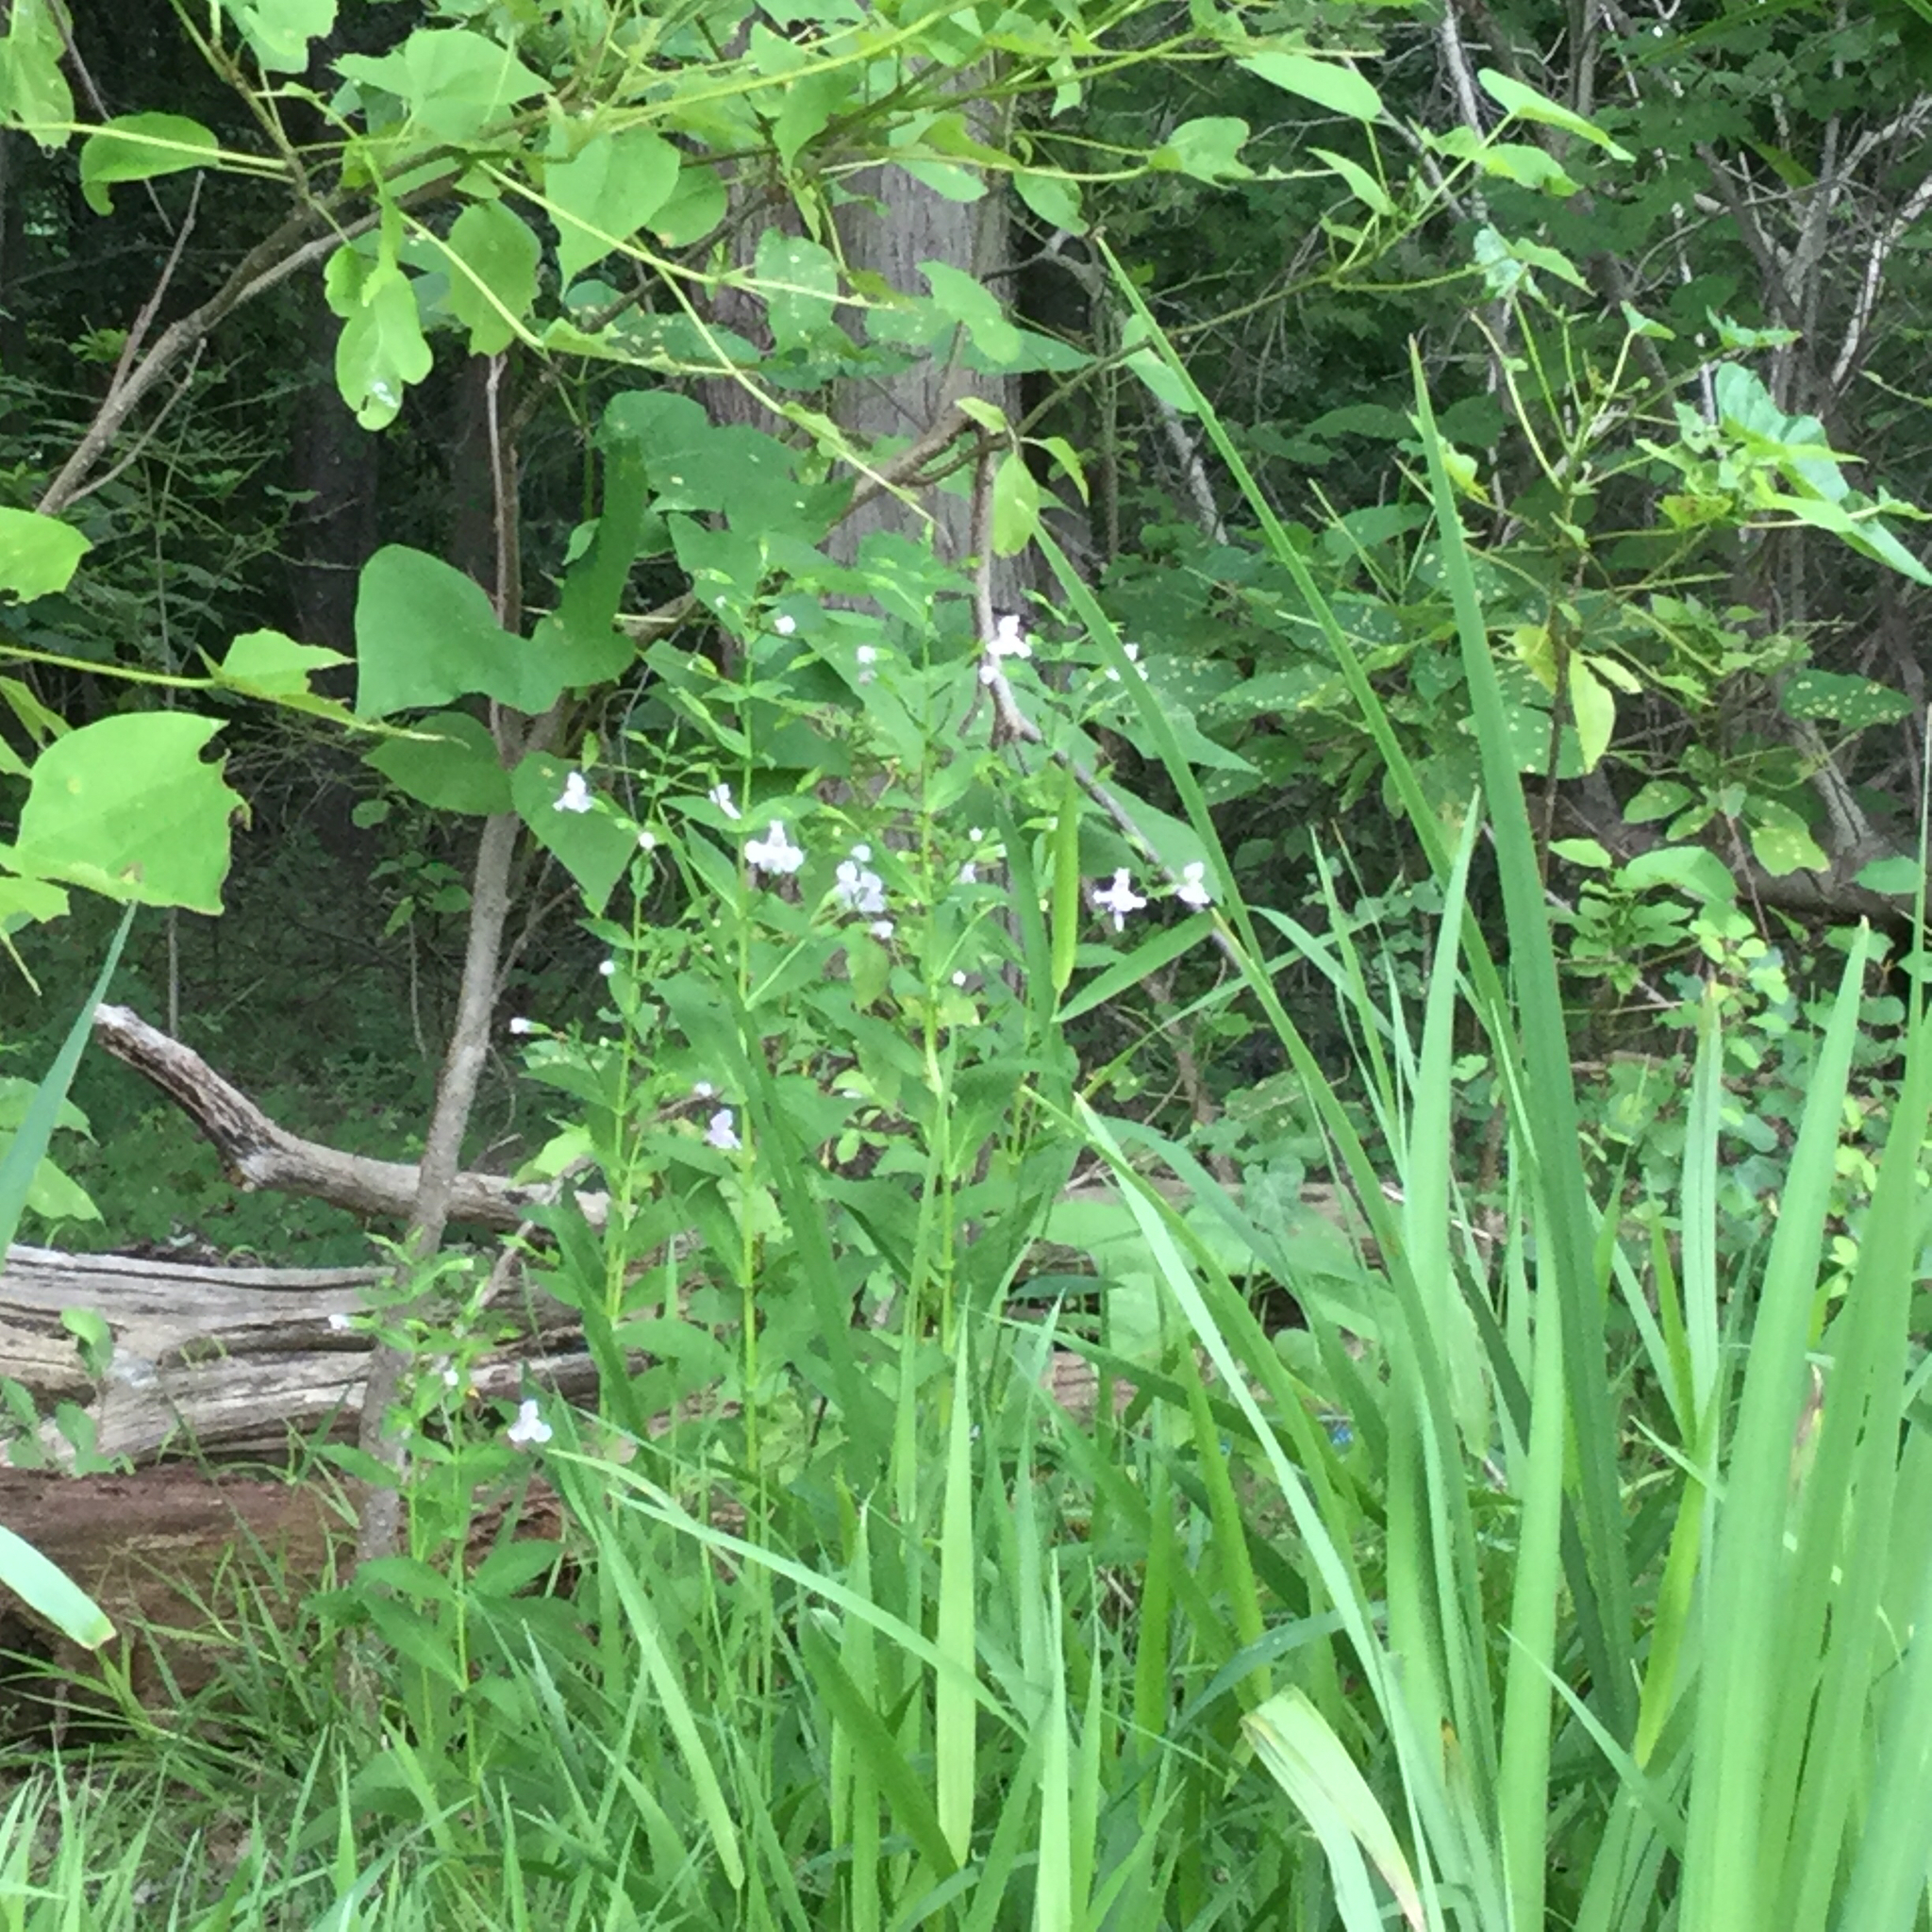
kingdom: Plantae
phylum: Tracheophyta
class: Magnoliopsida
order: Lamiales
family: Phrymaceae
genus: Mimulus
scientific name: Mimulus ringens
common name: Allegheny monkeyflower
